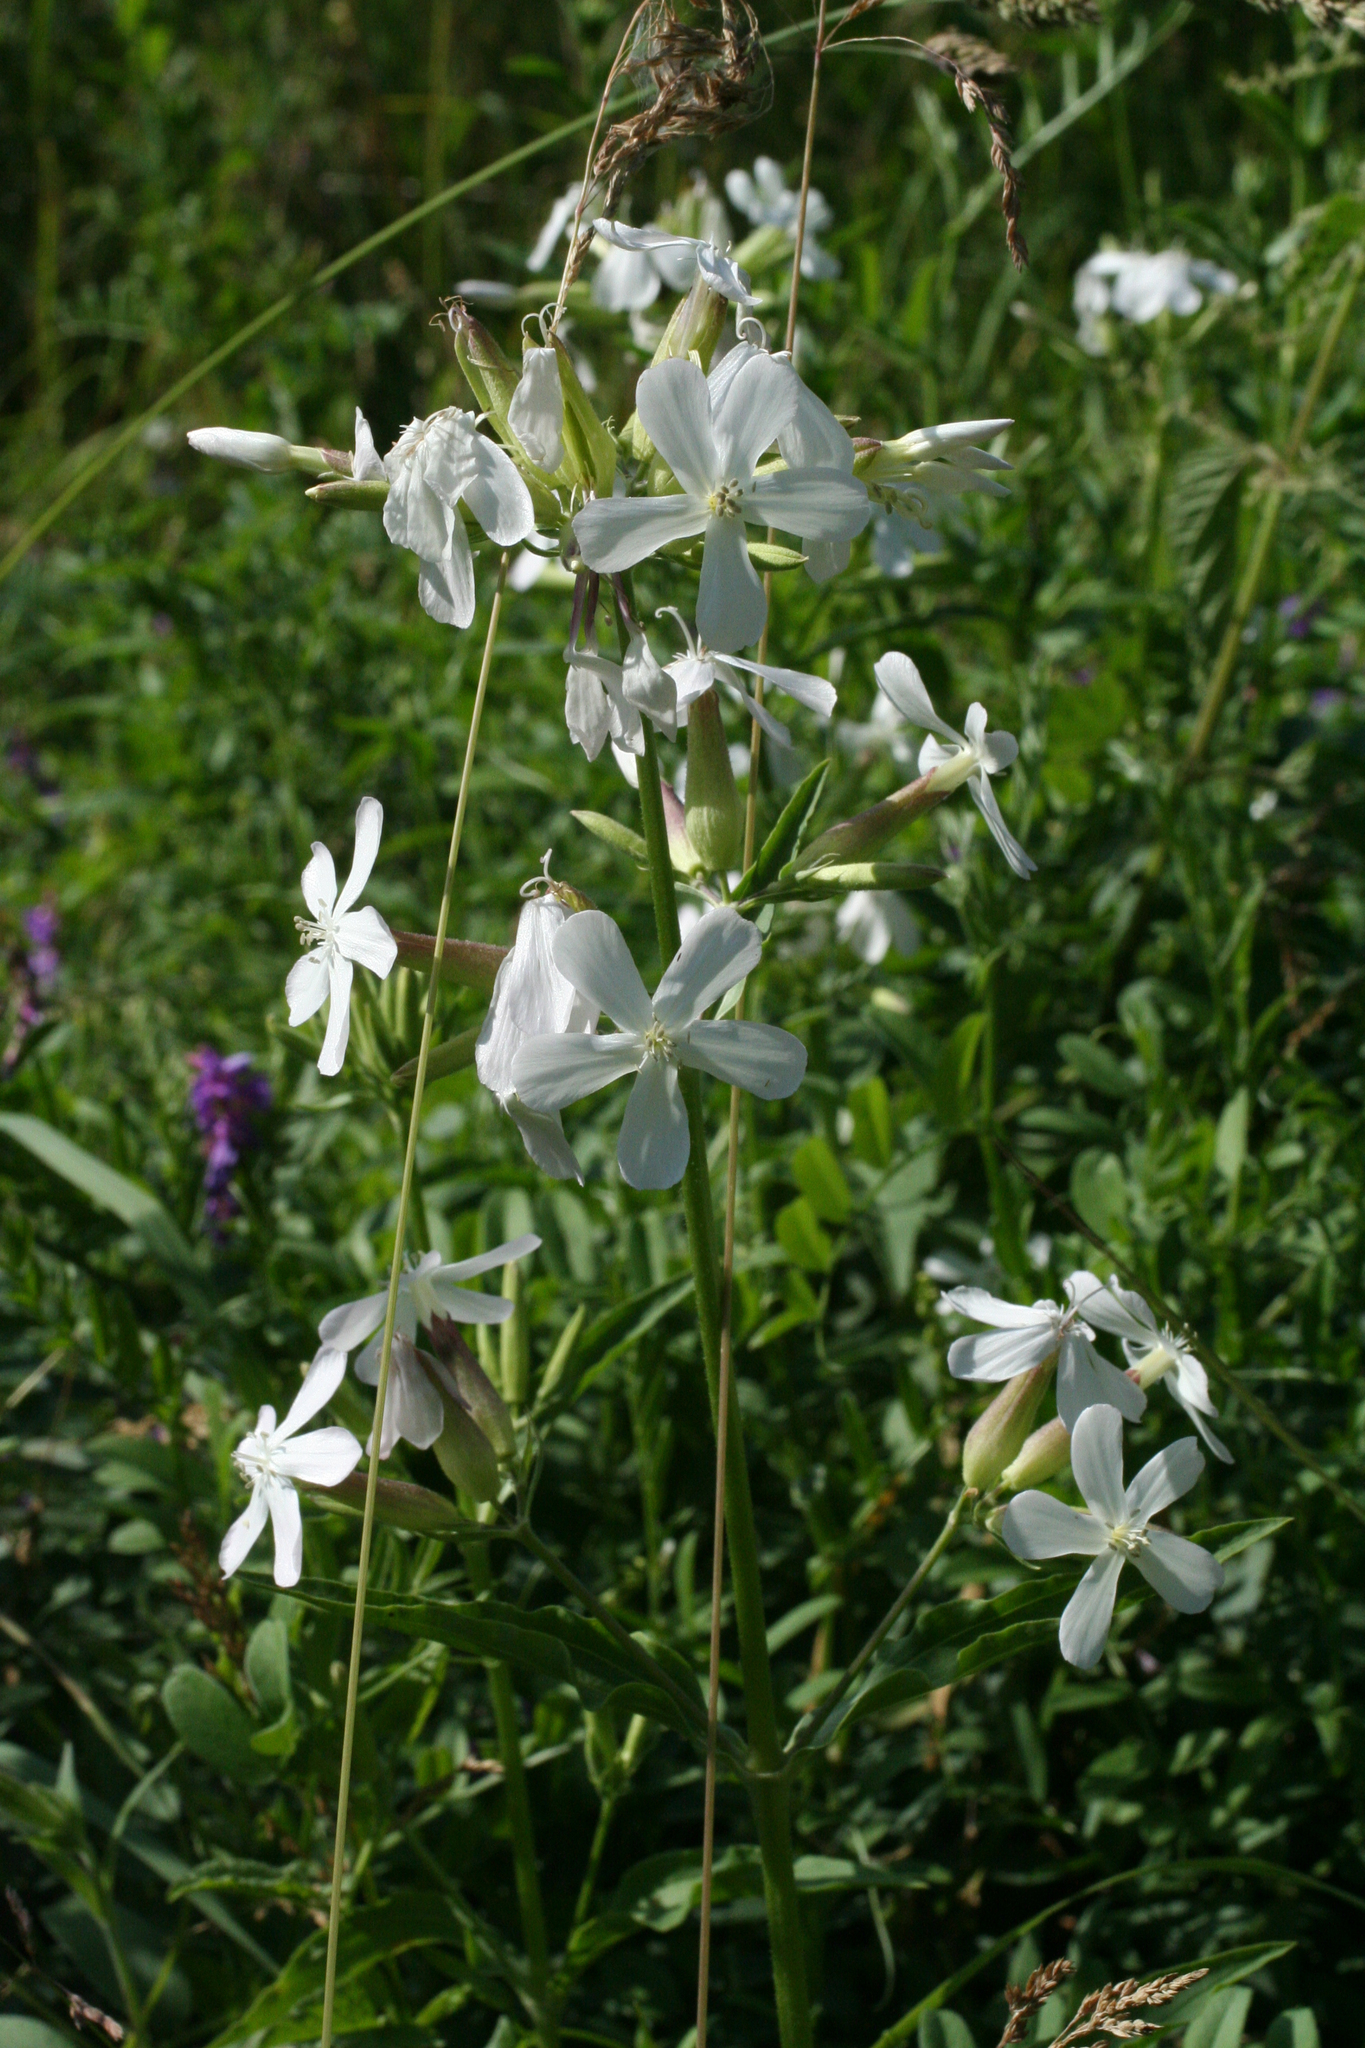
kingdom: Plantae
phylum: Tracheophyta
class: Magnoliopsida
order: Caryophyllales
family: Caryophyllaceae
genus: Saponaria
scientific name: Saponaria officinalis
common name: Soapwort
